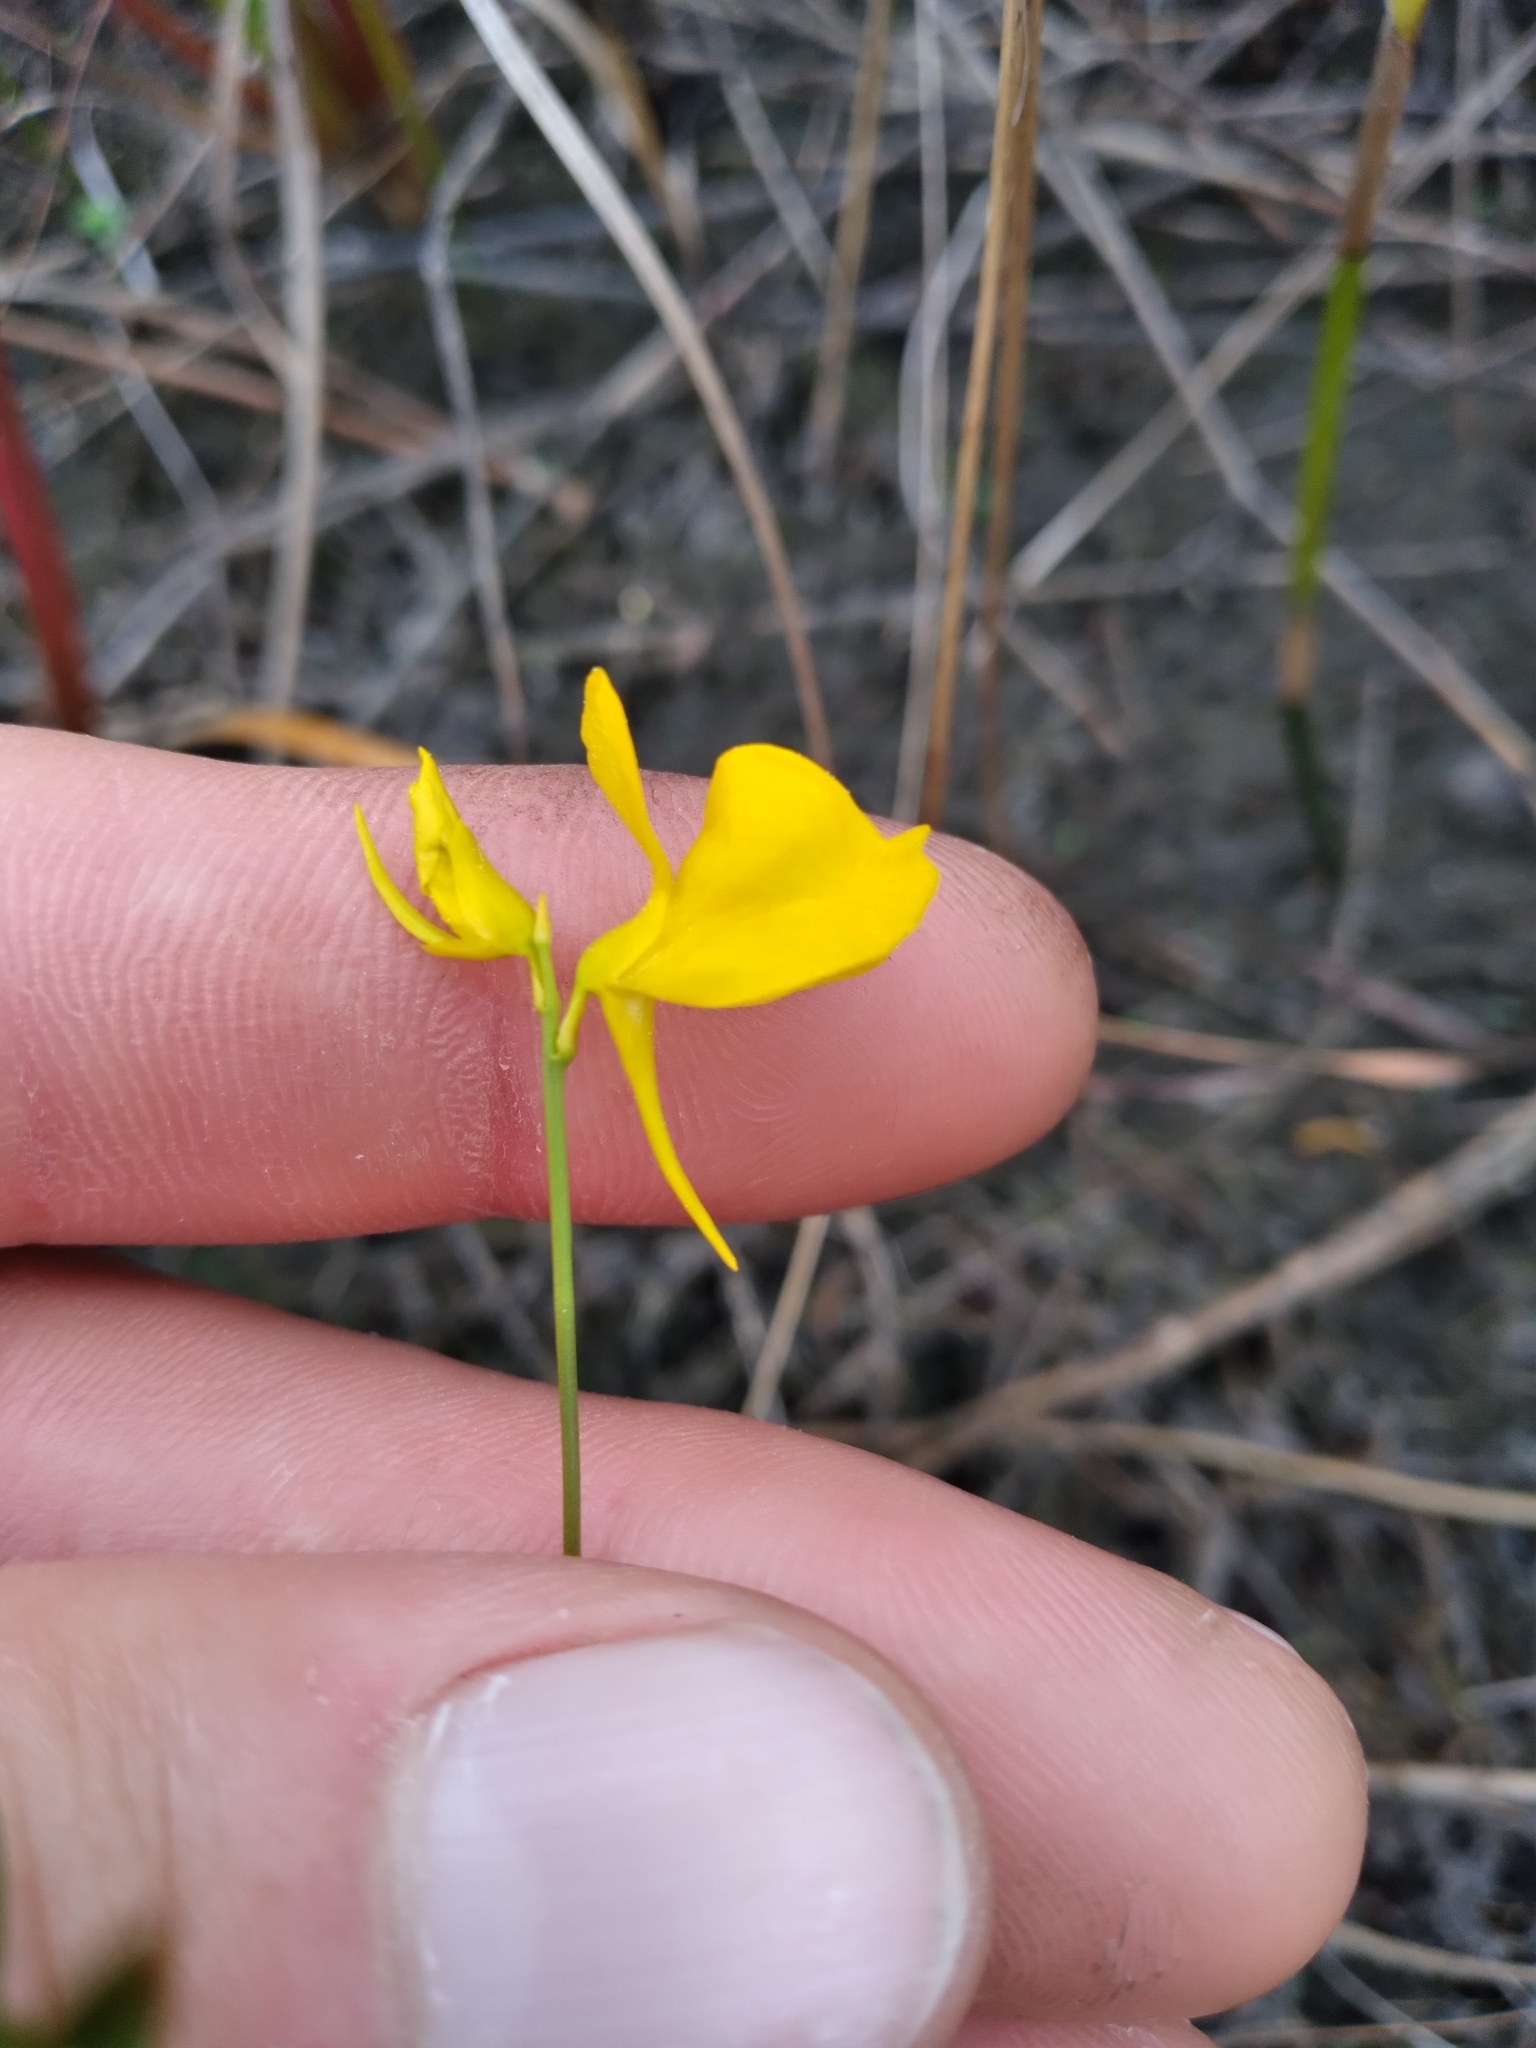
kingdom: Plantae
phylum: Tracheophyta
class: Magnoliopsida
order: Lamiales
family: Lentibulariaceae
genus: Utricularia
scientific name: Utricularia cornuta
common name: Horned bladderwort
